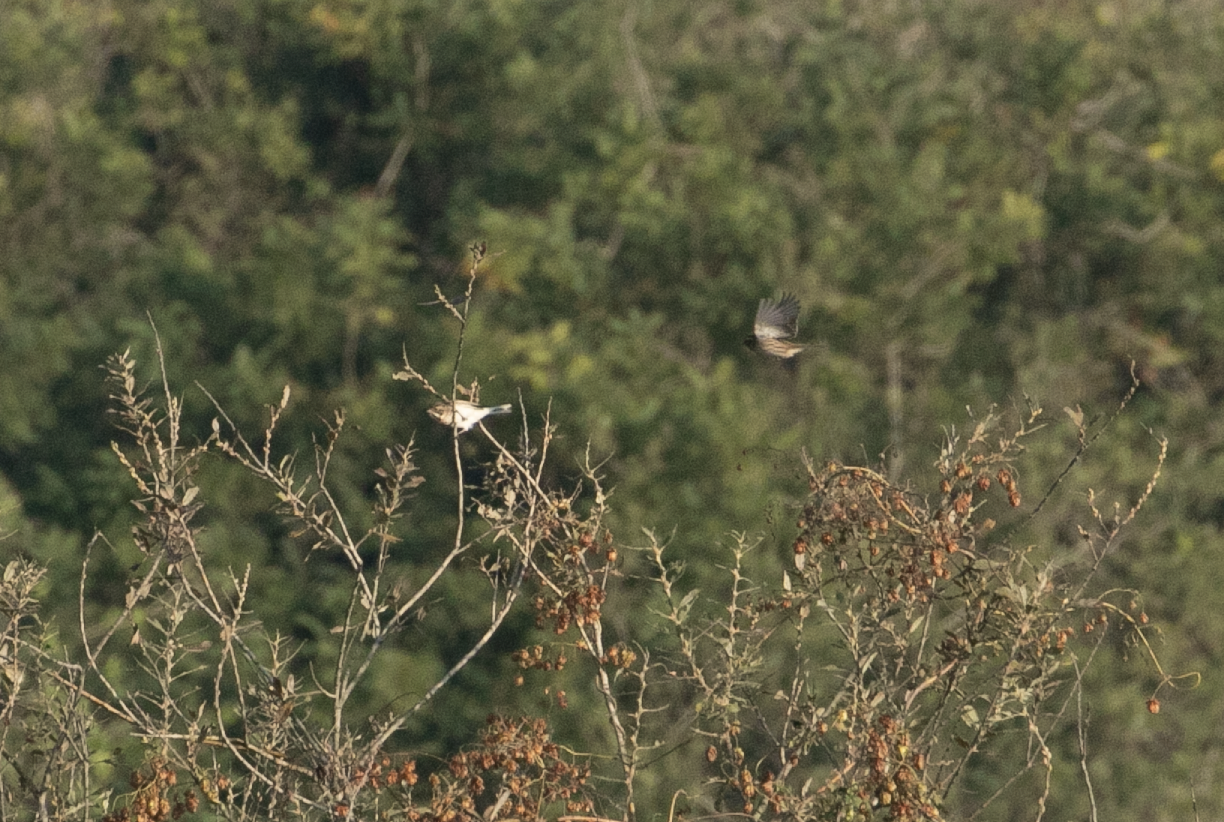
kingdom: Animalia
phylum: Chordata
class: Aves
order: Passeriformes
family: Emberizidae
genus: Emberiza
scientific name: Emberiza schoeniclus
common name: Reed bunting
